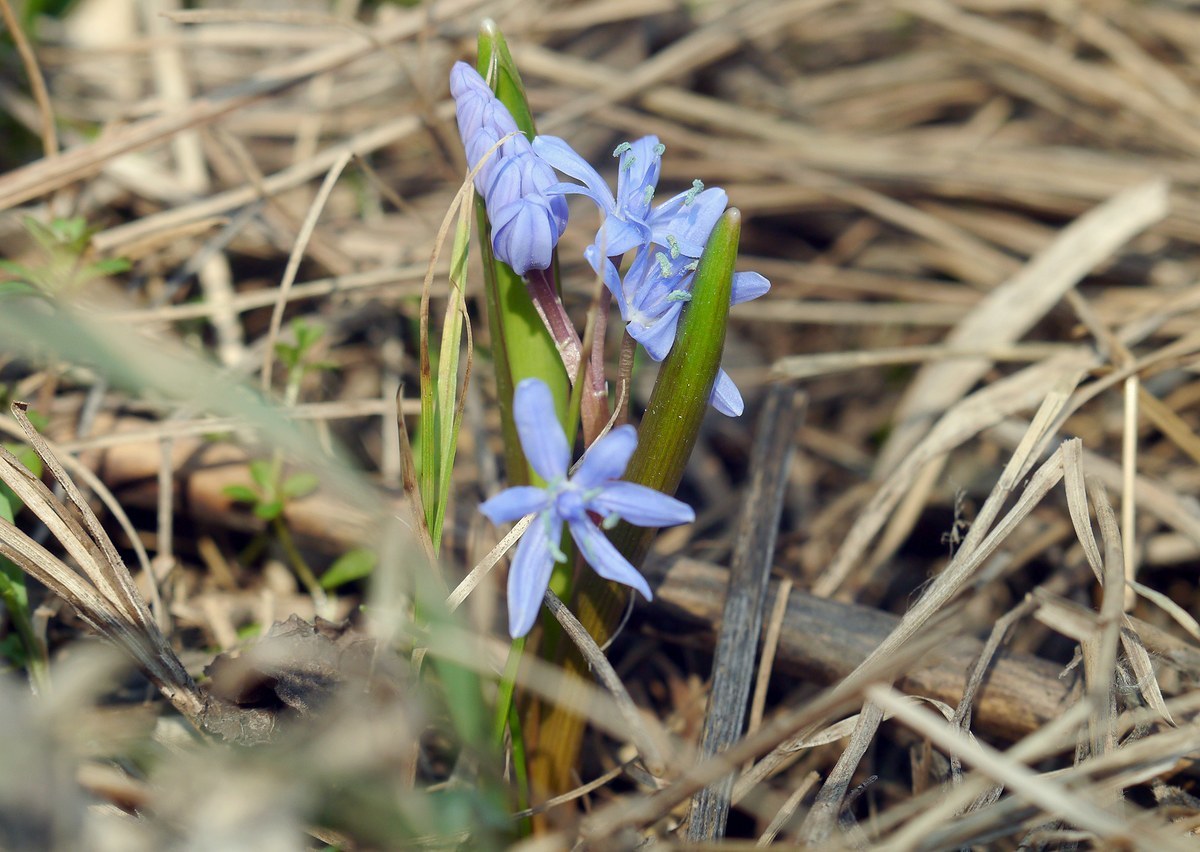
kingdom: Plantae
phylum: Tracheophyta
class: Liliopsida
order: Asparagales
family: Asparagaceae
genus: Scilla
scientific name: Scilla bifolia
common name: Alpine squill
